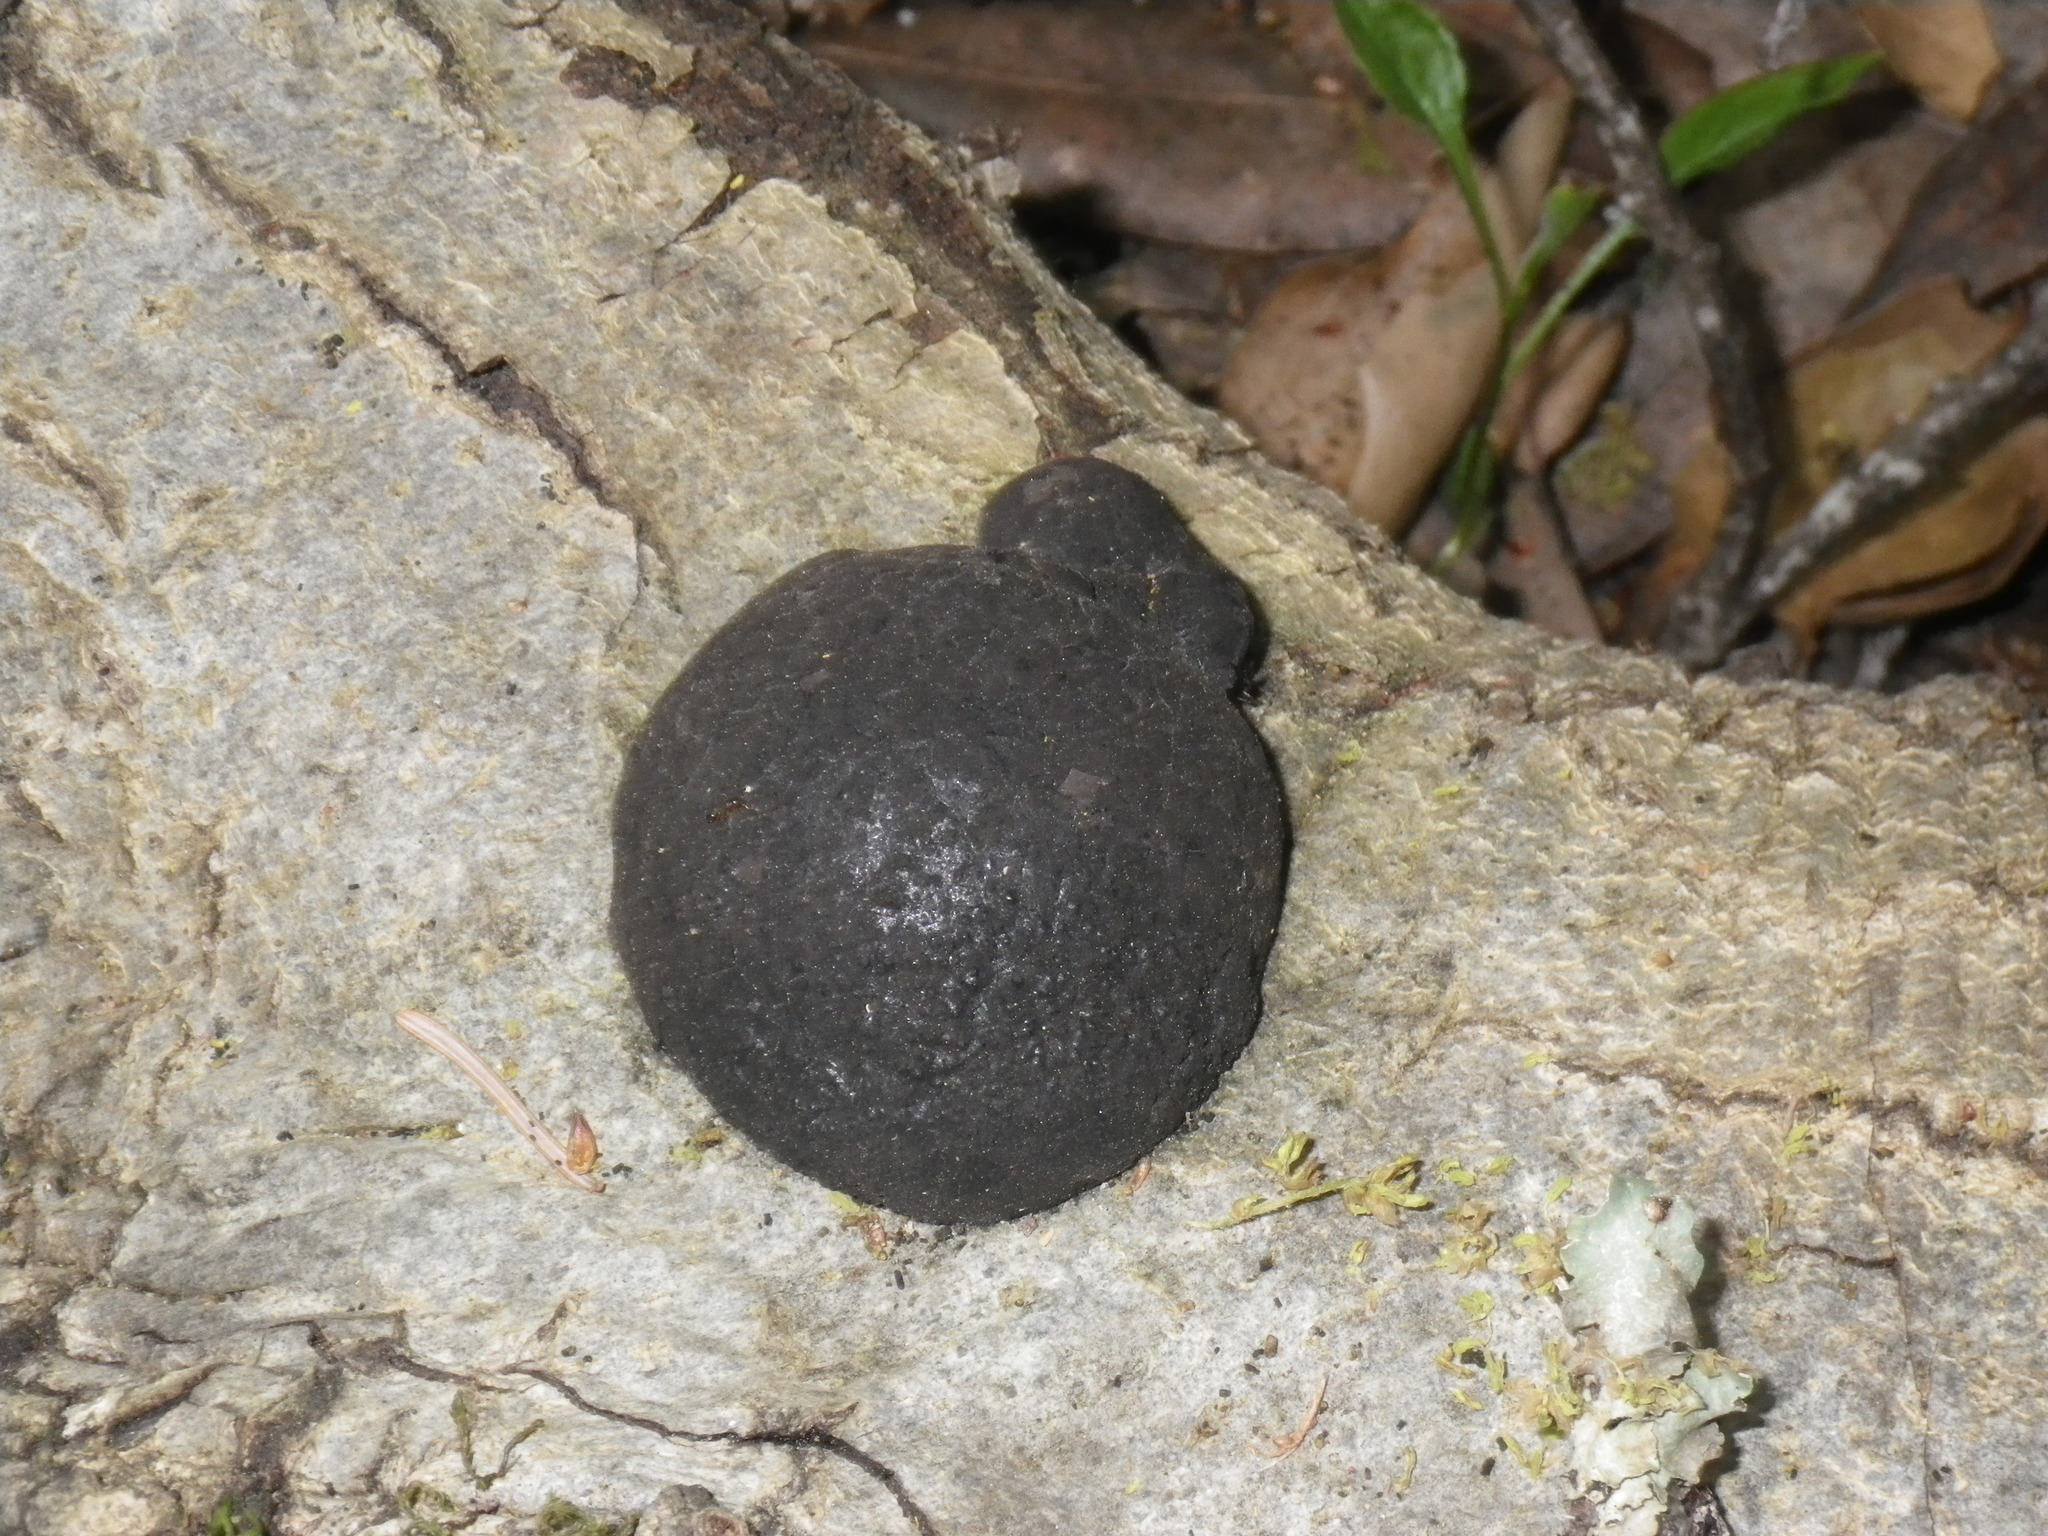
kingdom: Fungi
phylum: Ascomycota
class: Sordariomycetes
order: Xylariales
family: Hypoxylaceae
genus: Annulohypoxylon
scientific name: Annulohypoxylon thouarsianum
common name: Cramp balls
